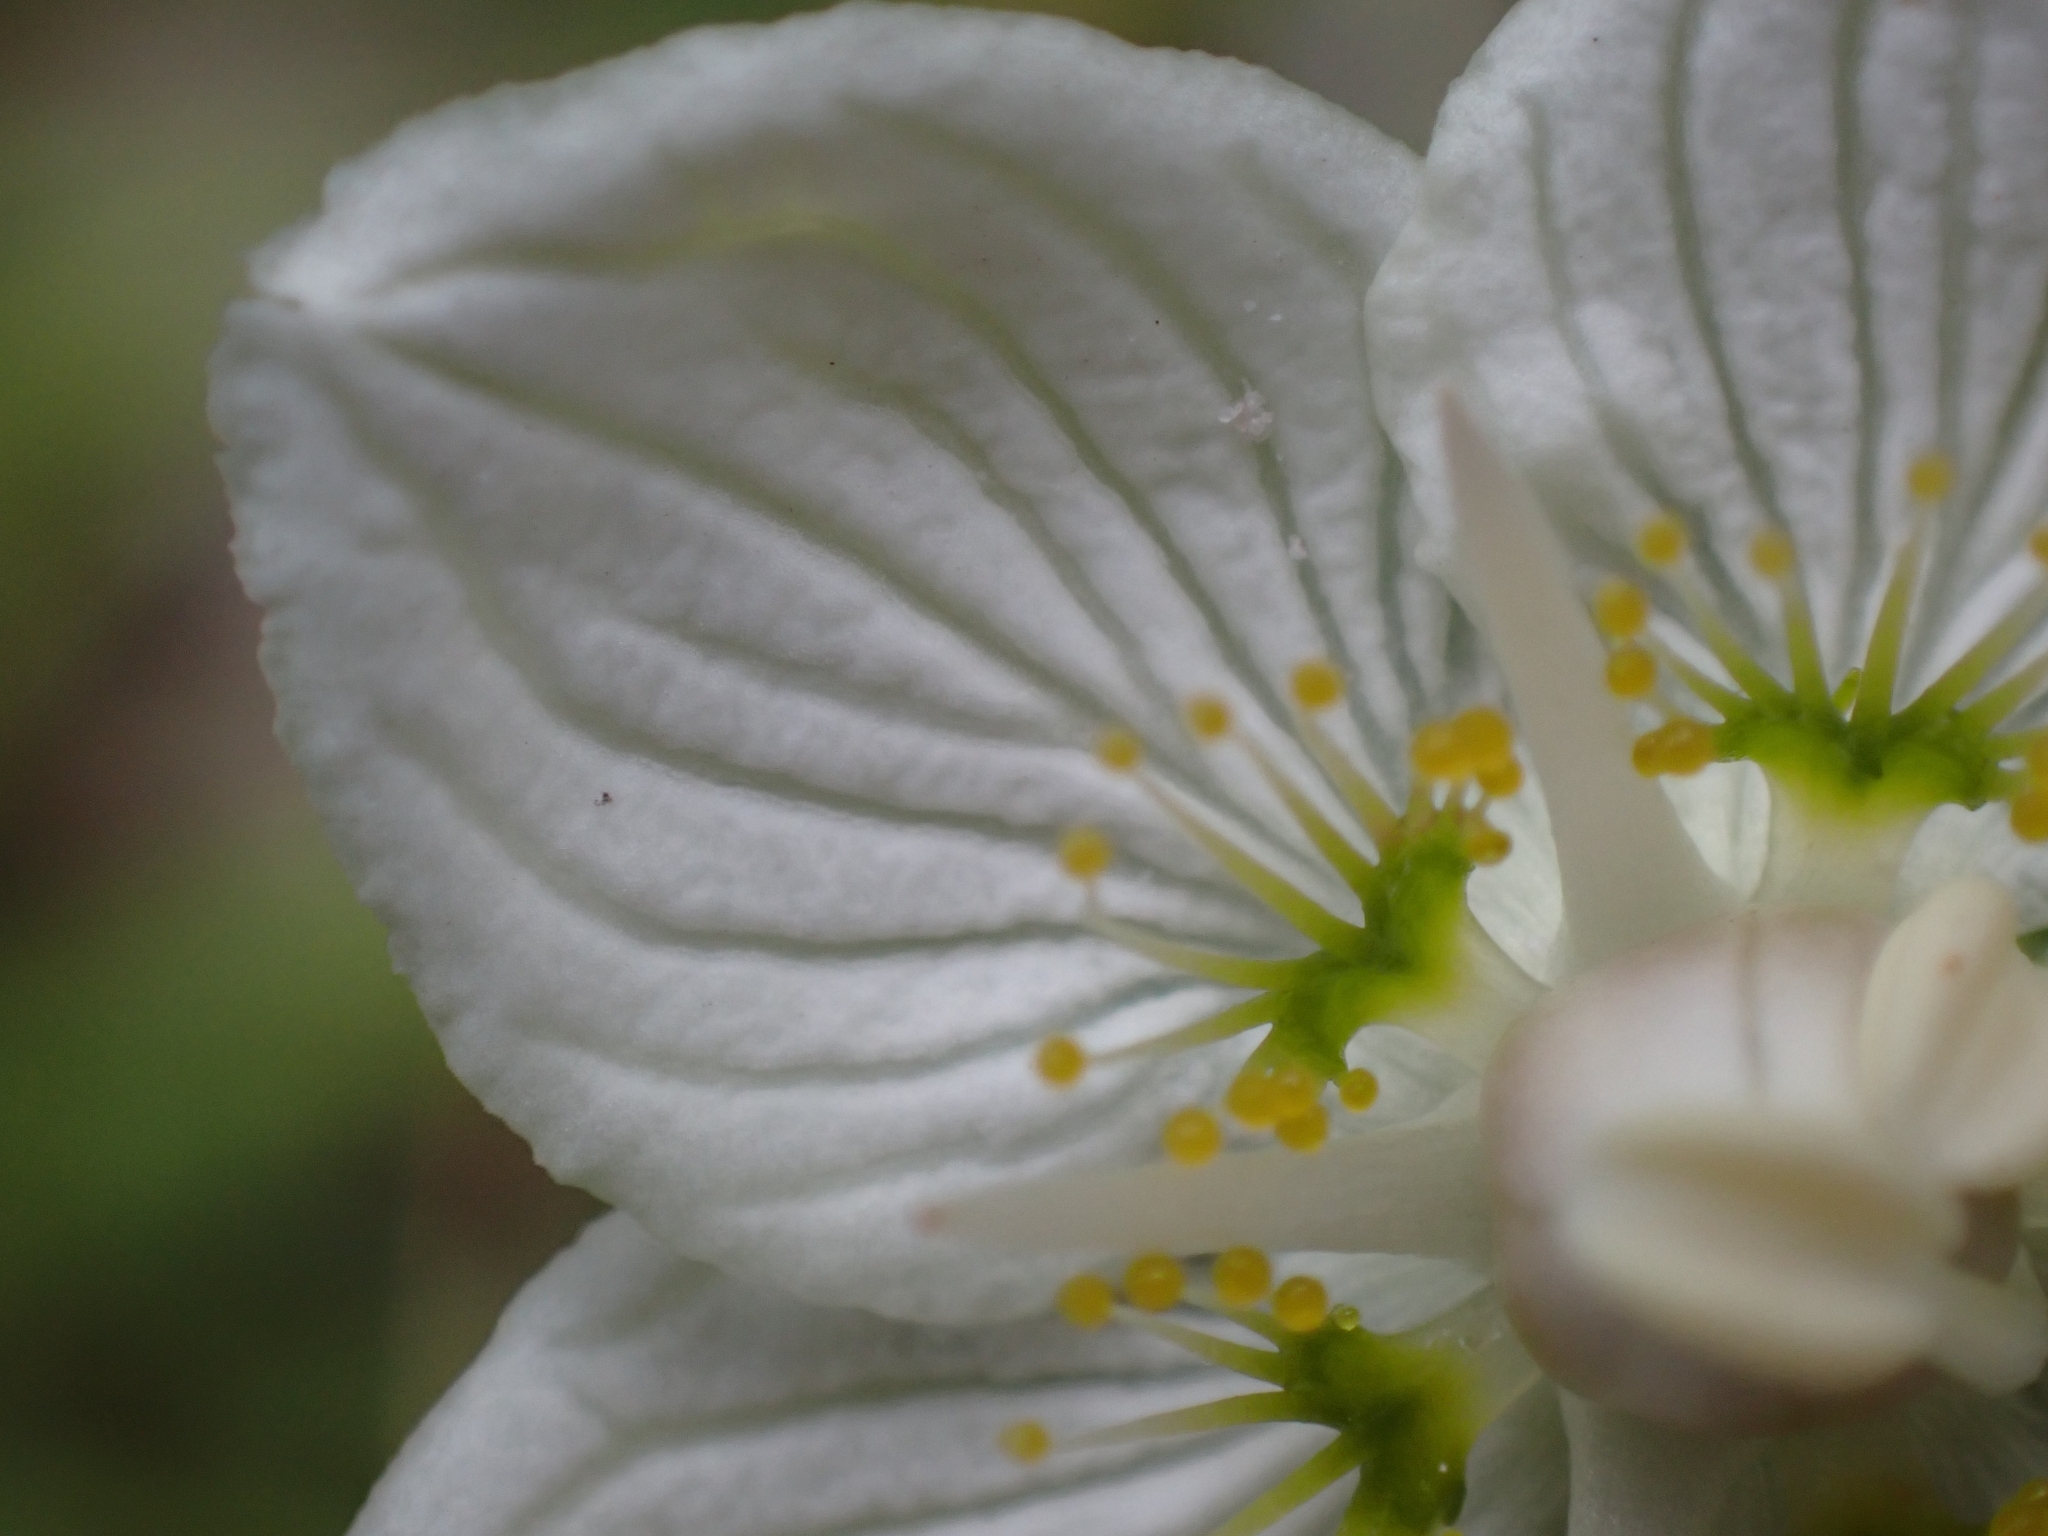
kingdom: Plantae
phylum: Tracheophyta
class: Magnoliopsida
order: Celastrales
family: Parnassiaceae
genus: Parnassia
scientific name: Parnassia palustris
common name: Grass-of-parnassus
